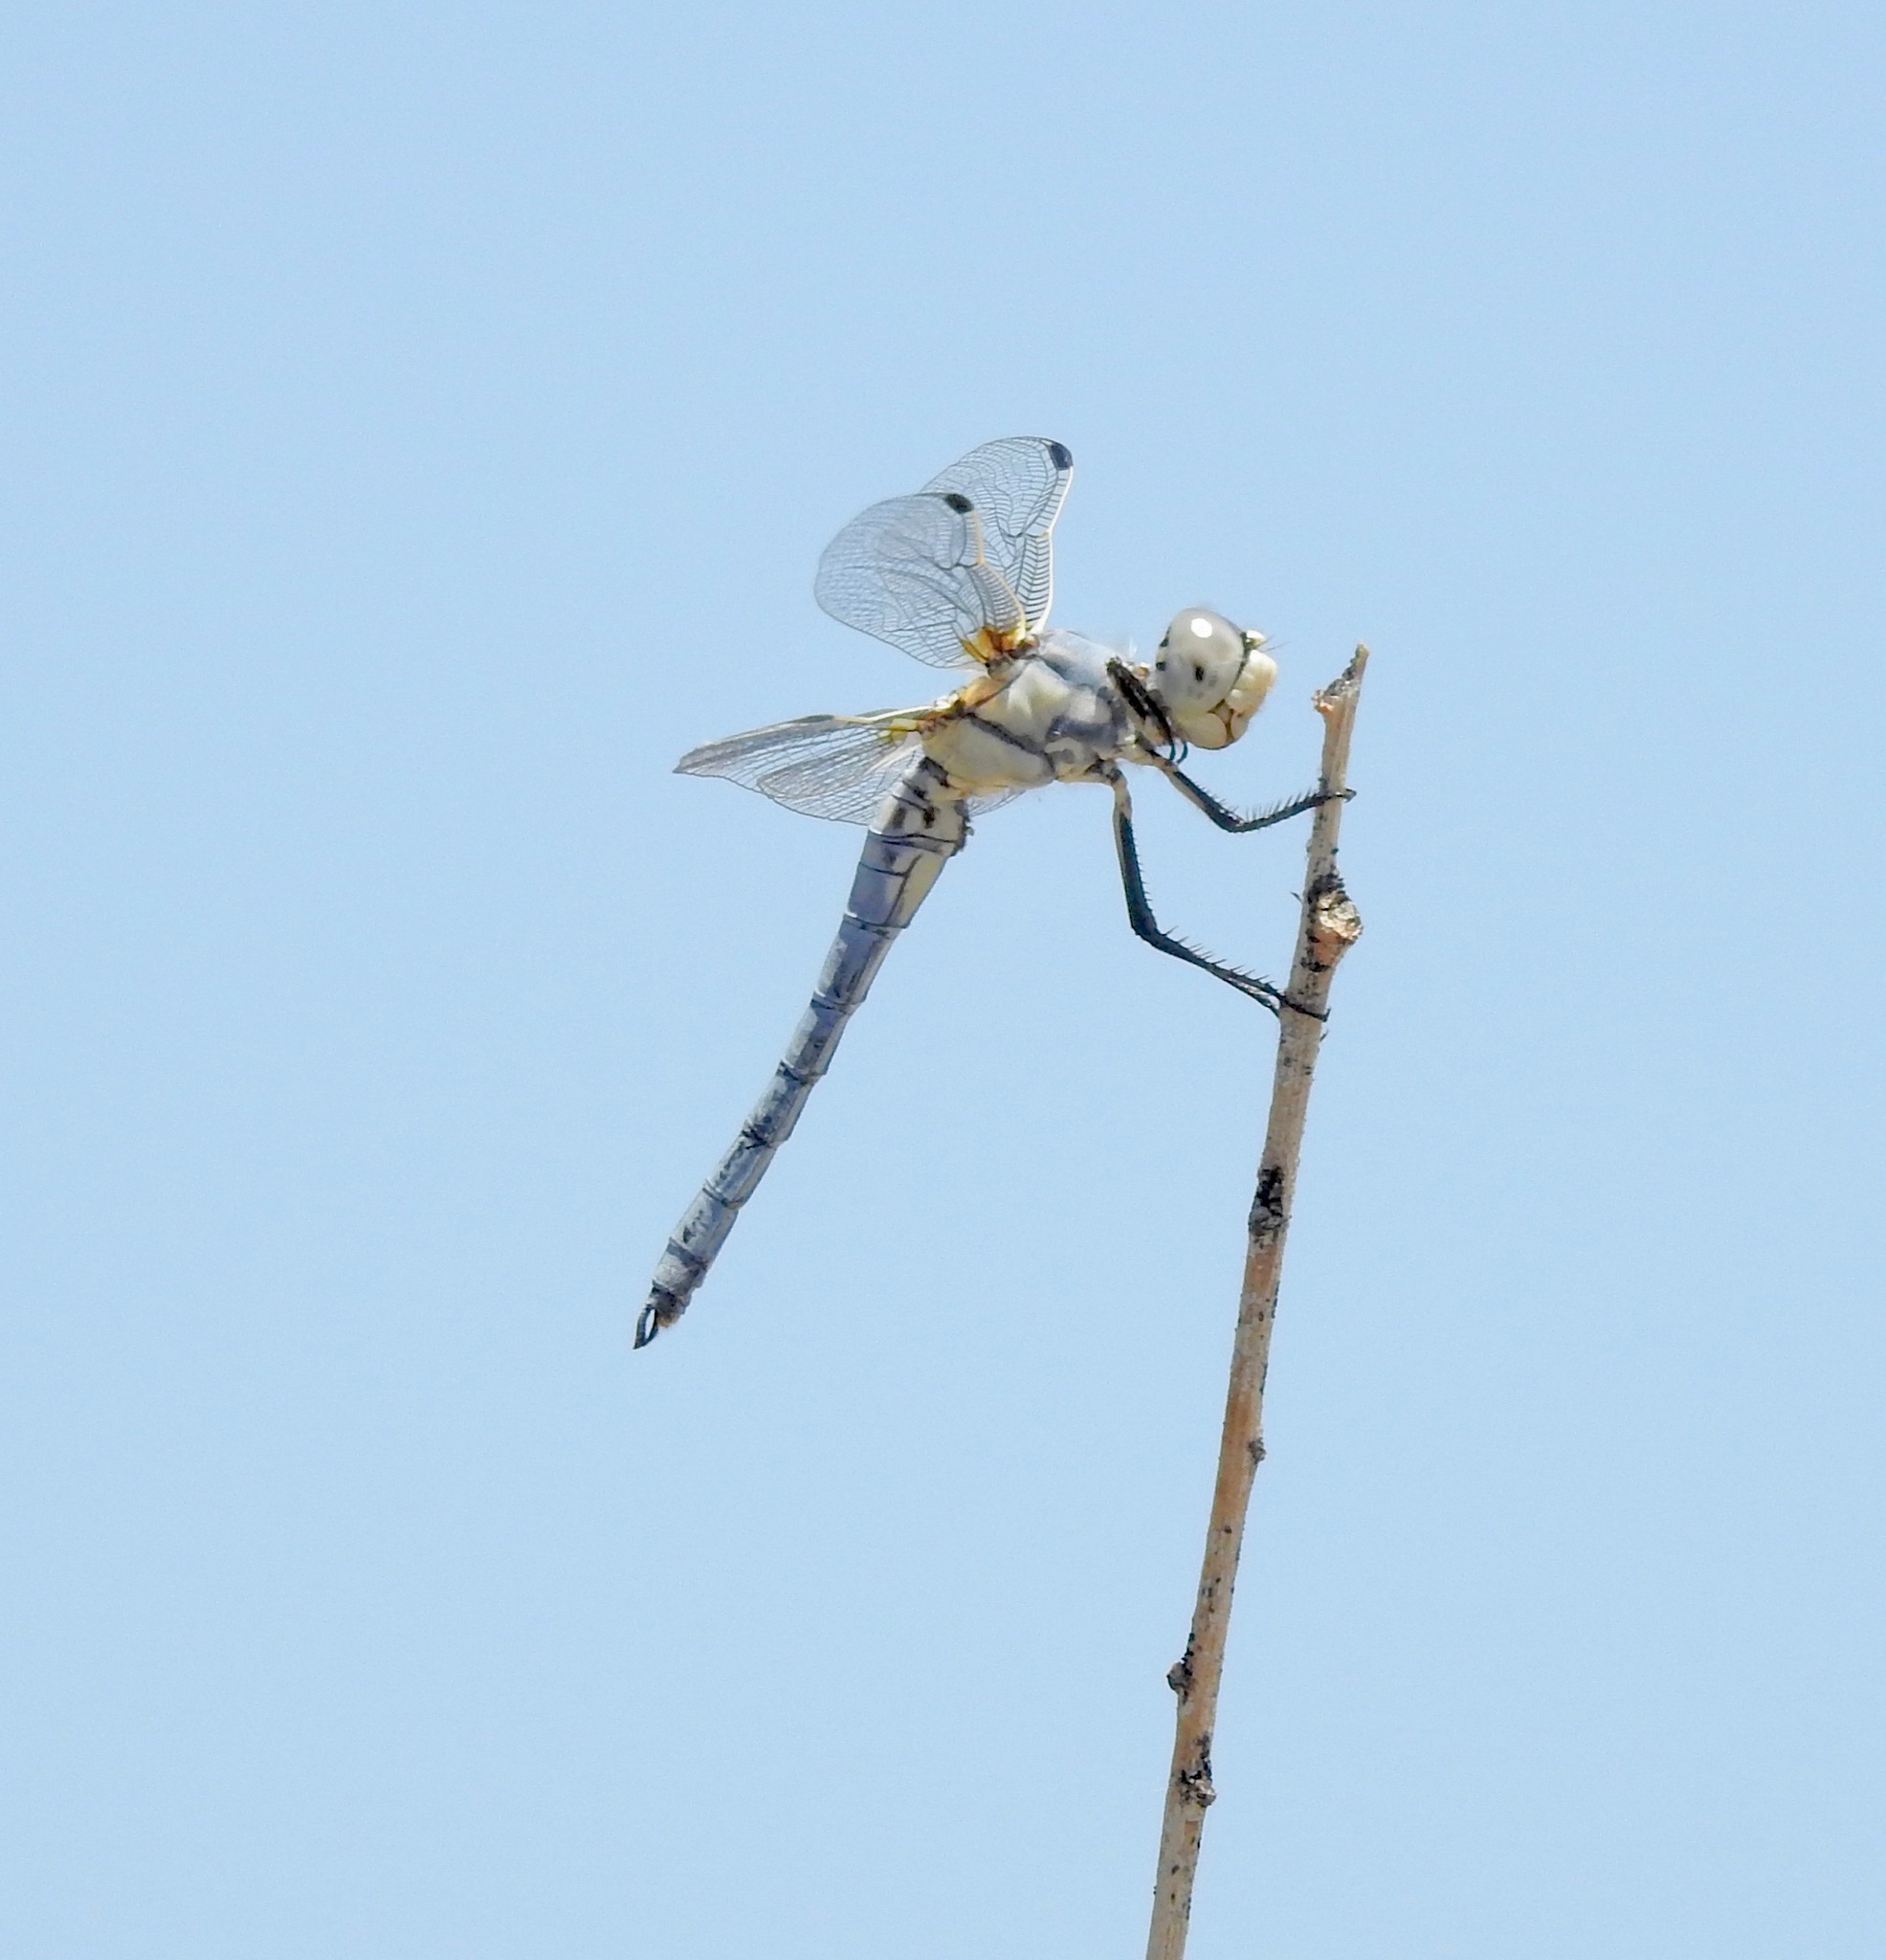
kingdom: Animalia
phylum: Arthropoda
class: Insecta
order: Odonata
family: Libellulidae
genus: Libellula
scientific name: Libellula composita
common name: Bleached skimmer
